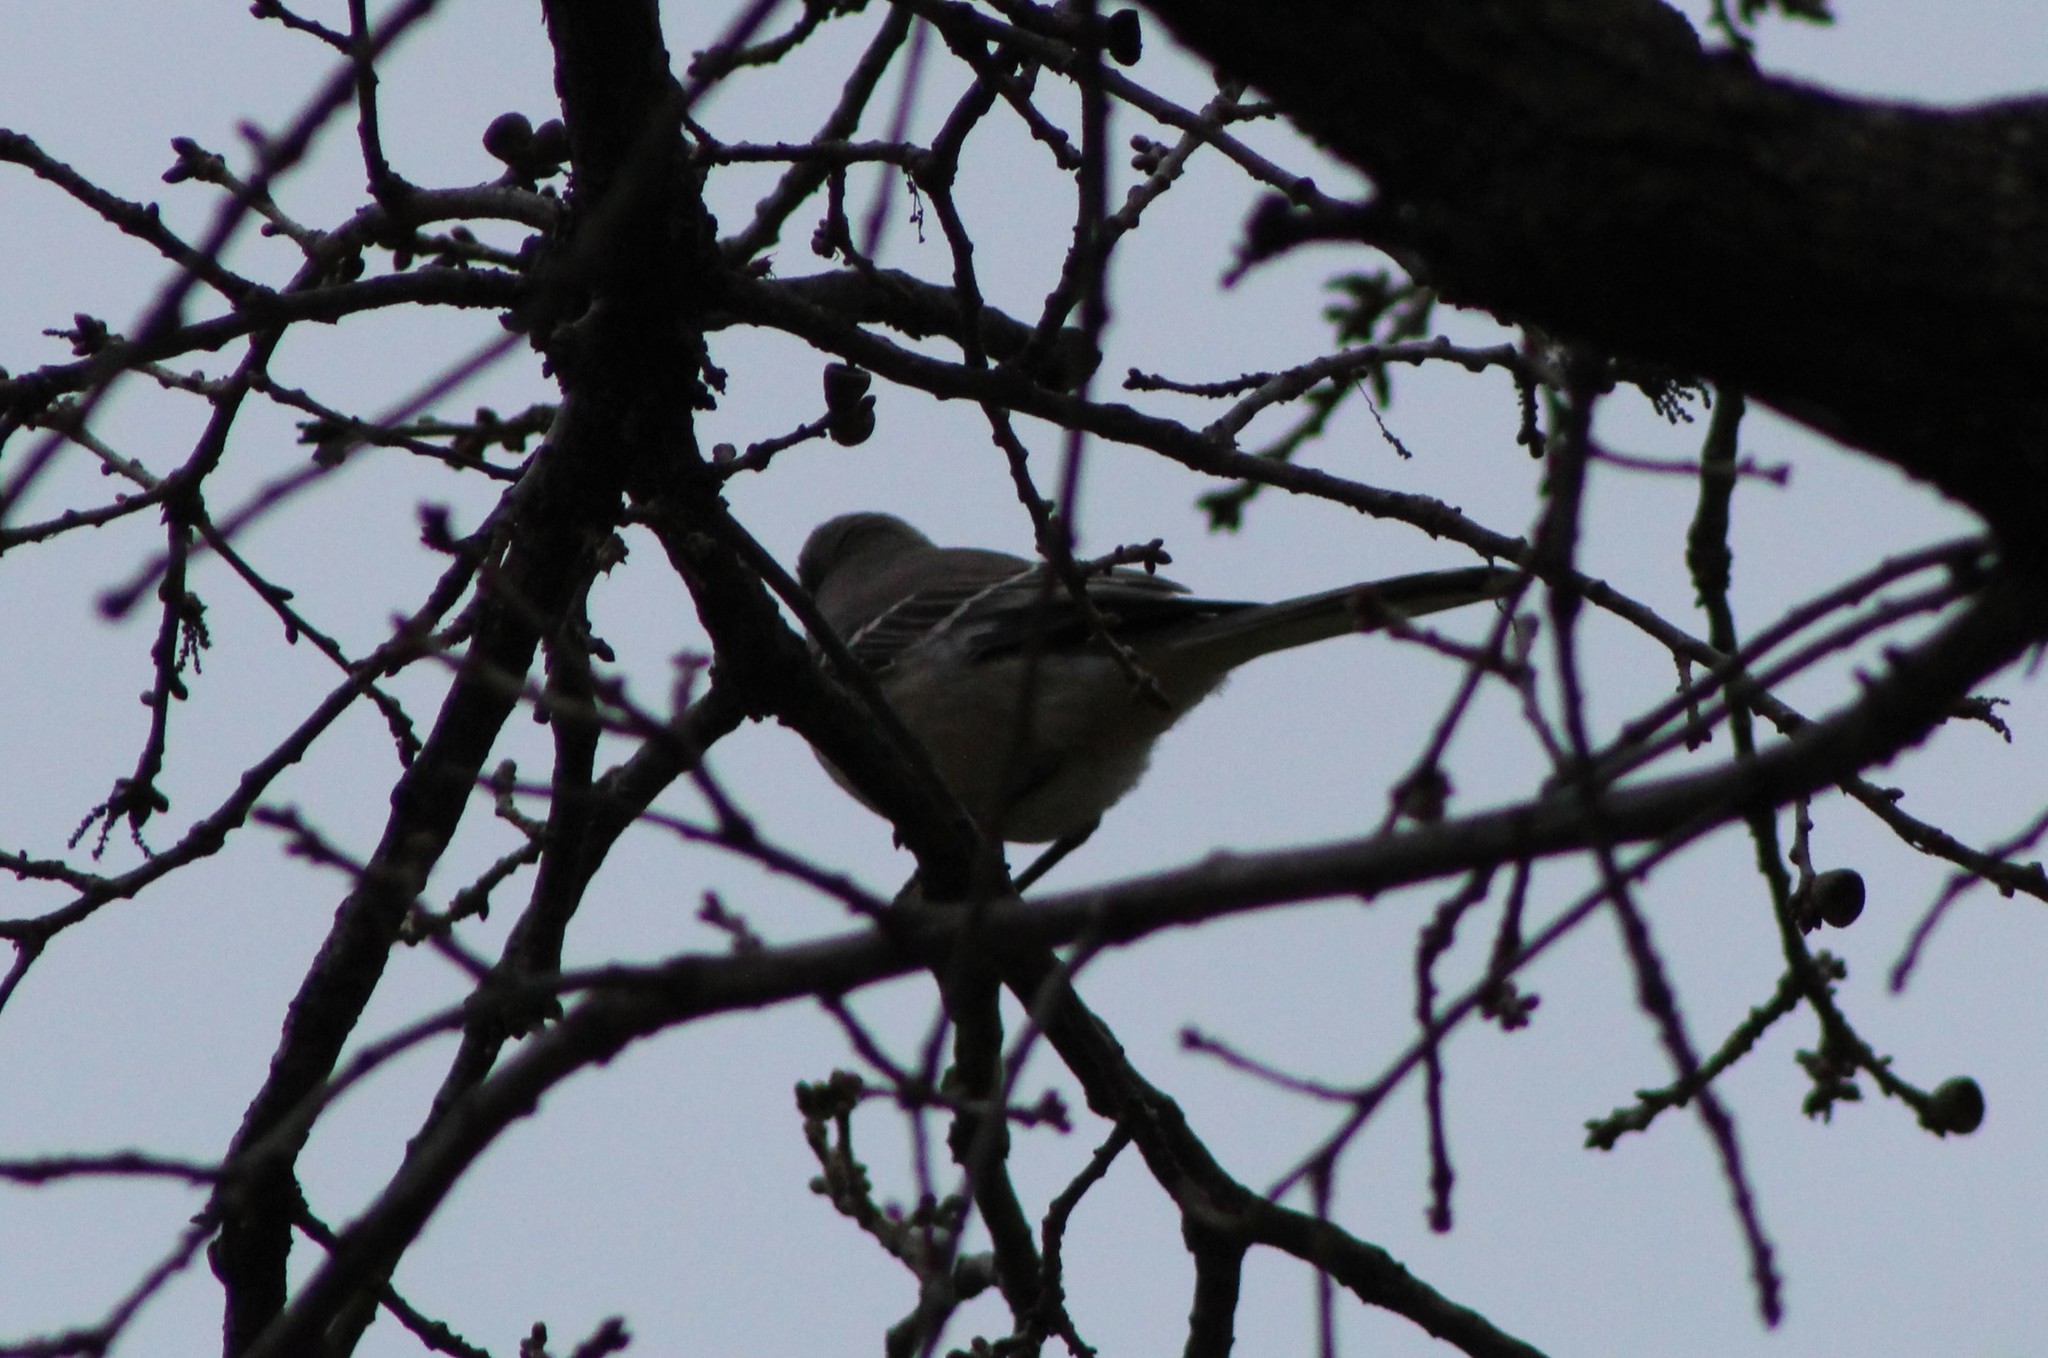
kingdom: Animalia
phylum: Chordata
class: Aves
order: Passeriformes
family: Mimidae
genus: Mimus
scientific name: Mimus polyglottos
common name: Northern mockingbird
